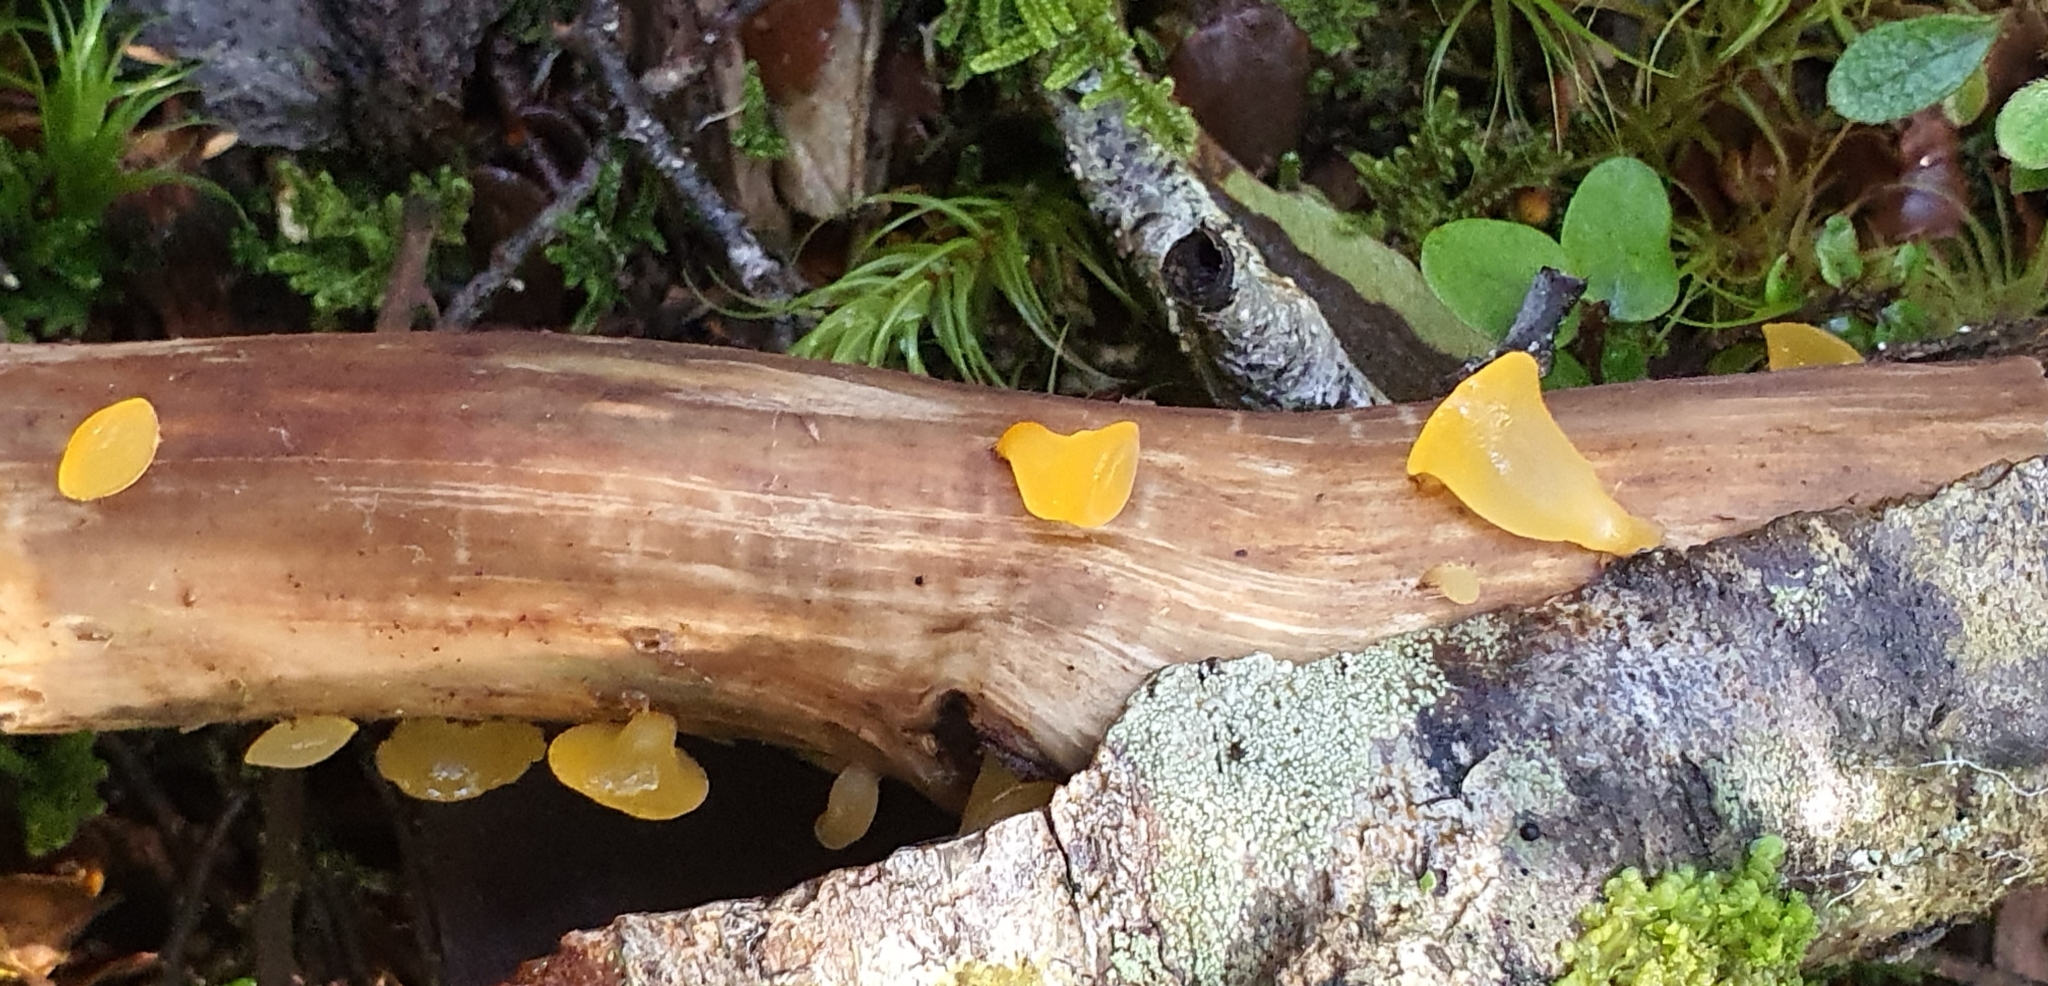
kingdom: Fungi
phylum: Basidiomycota
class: Dacrymycetes
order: Dacrymycetales
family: Dacrymycetaceae
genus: Heterotextus
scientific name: Heterotextus miltinus
